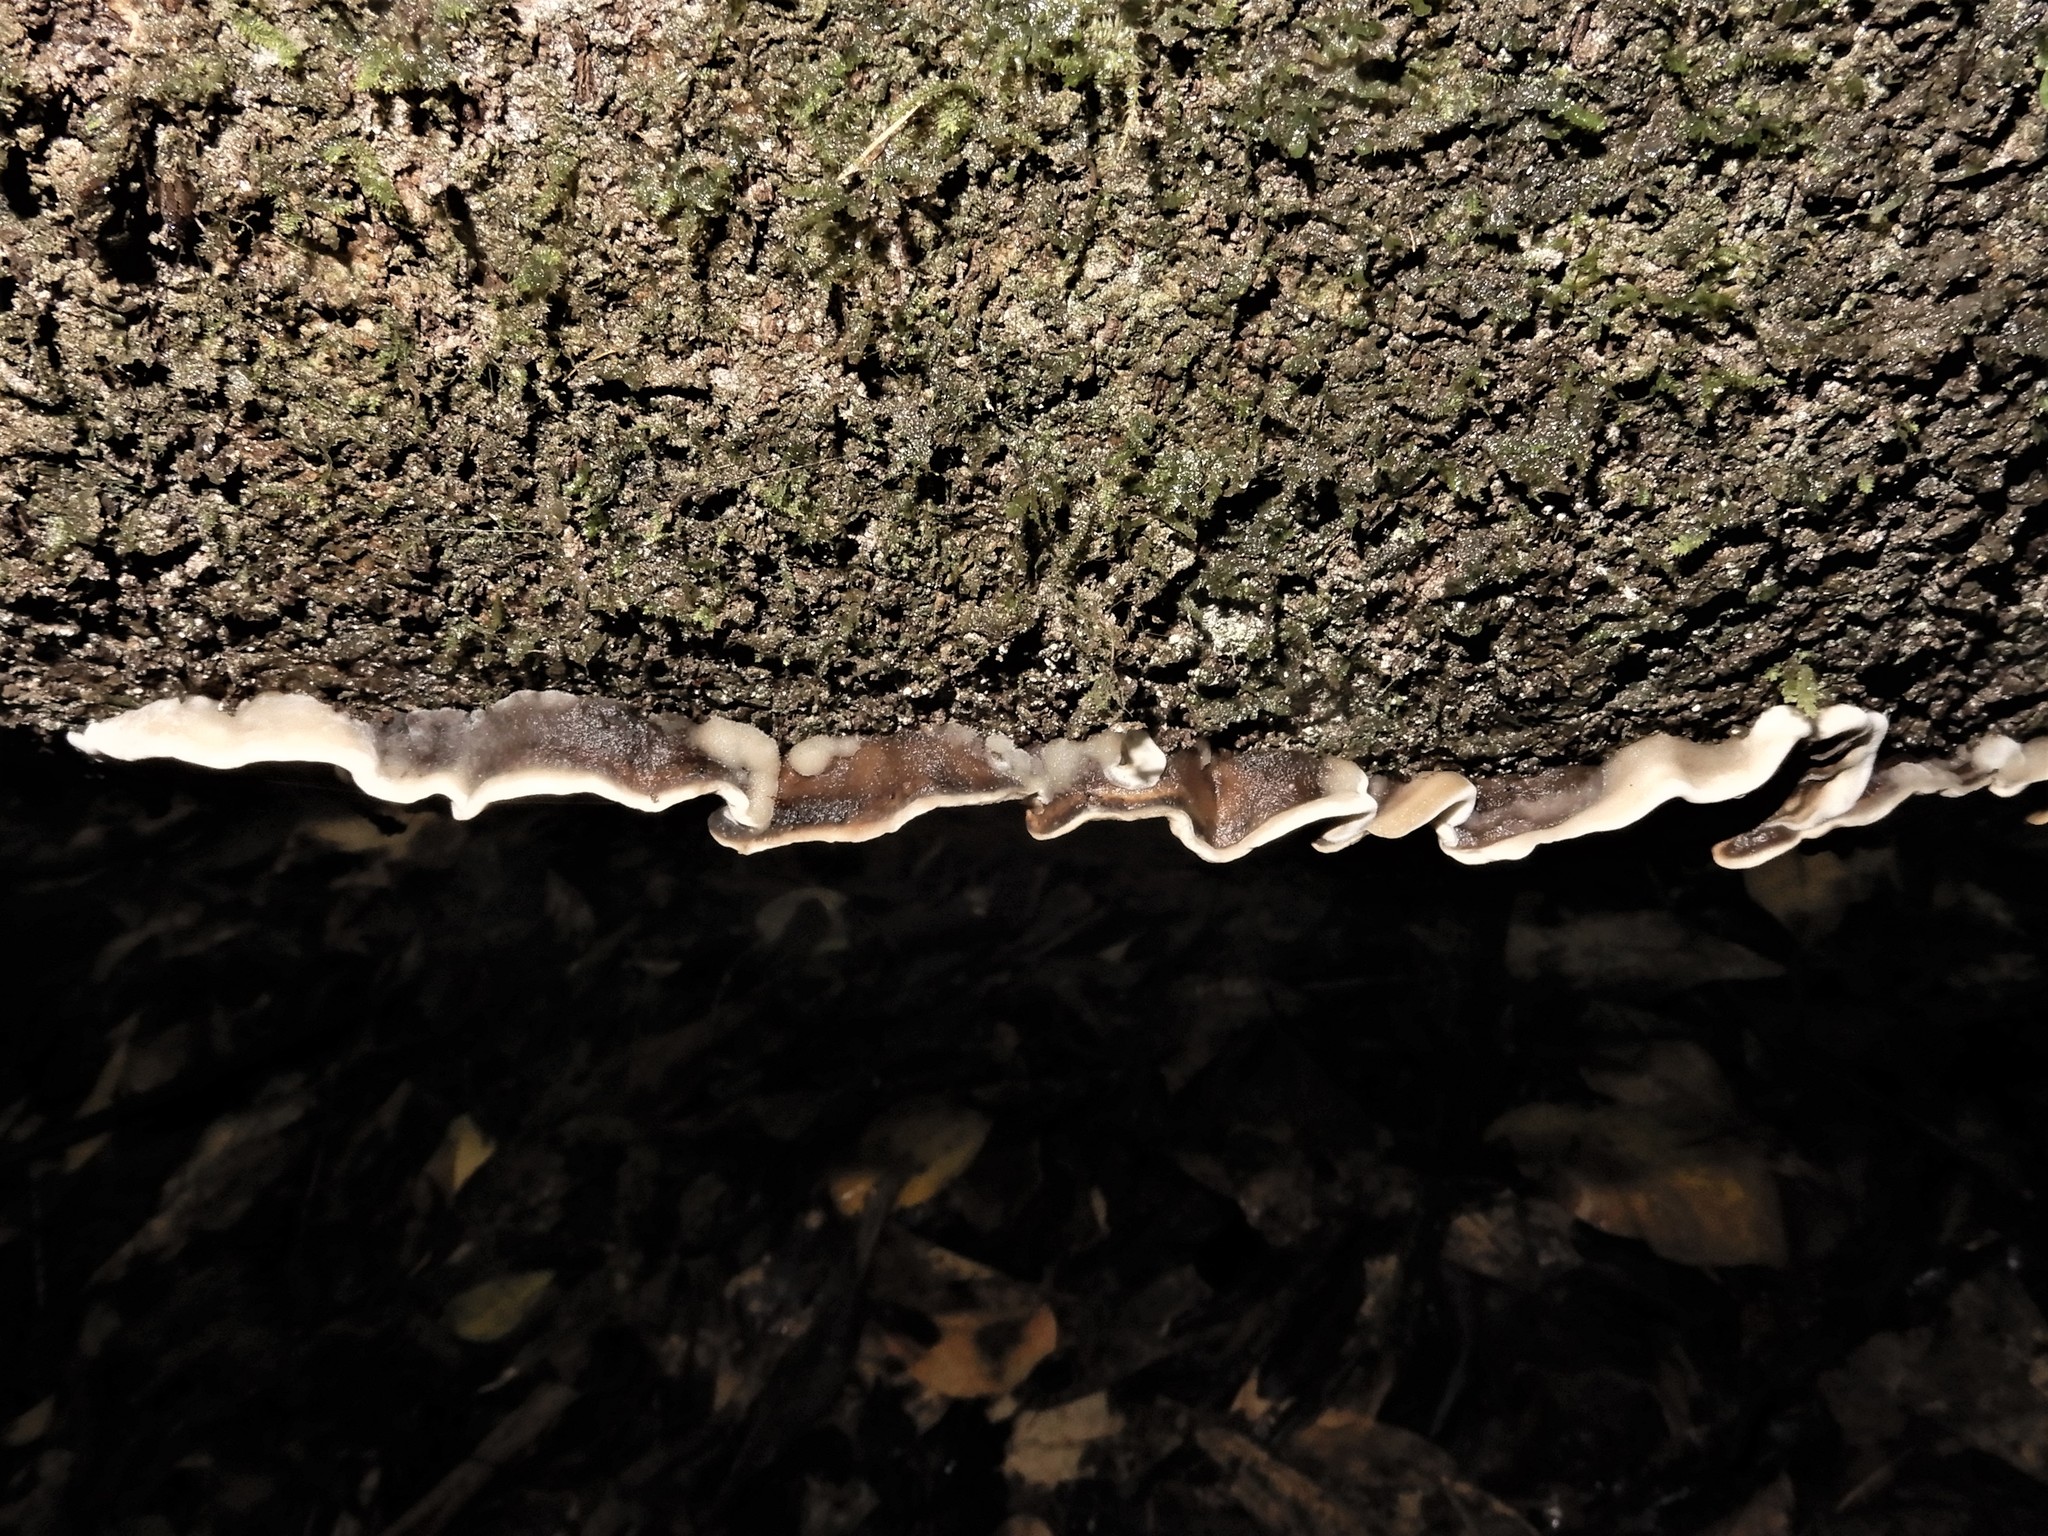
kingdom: Fungi
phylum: Basidiomycota
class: Agaricomycetes
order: Polyporales
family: Phanerochaetaceae
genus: Bjerkandera
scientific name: Bjerkandera adusta
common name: Smoky bracket
